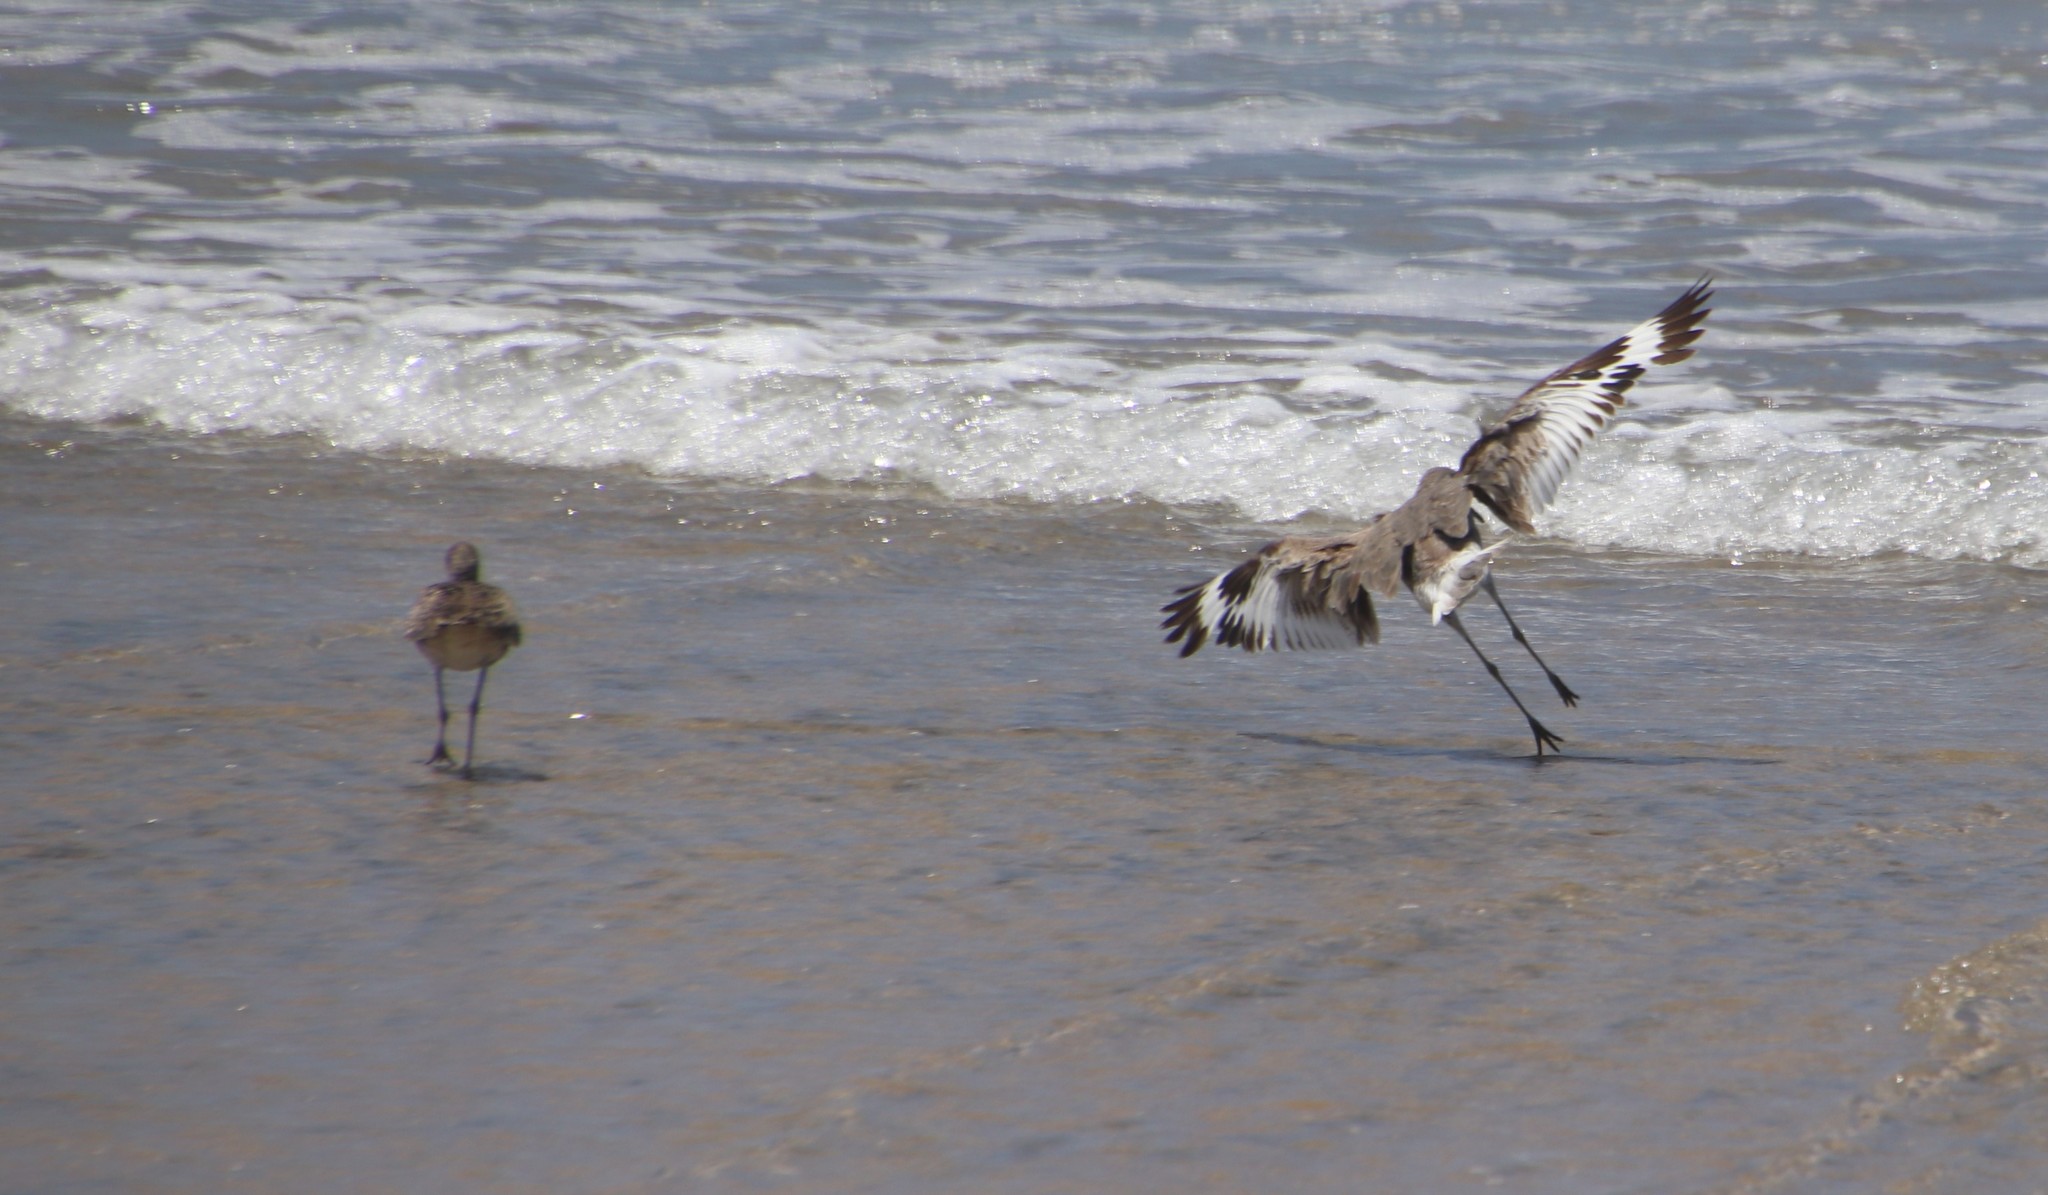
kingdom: Animalia
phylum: Chordata
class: Aves
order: Charadriiformes
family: Scolopacidae
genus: Tringa
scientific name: Tringa semipalmata
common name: Willet
